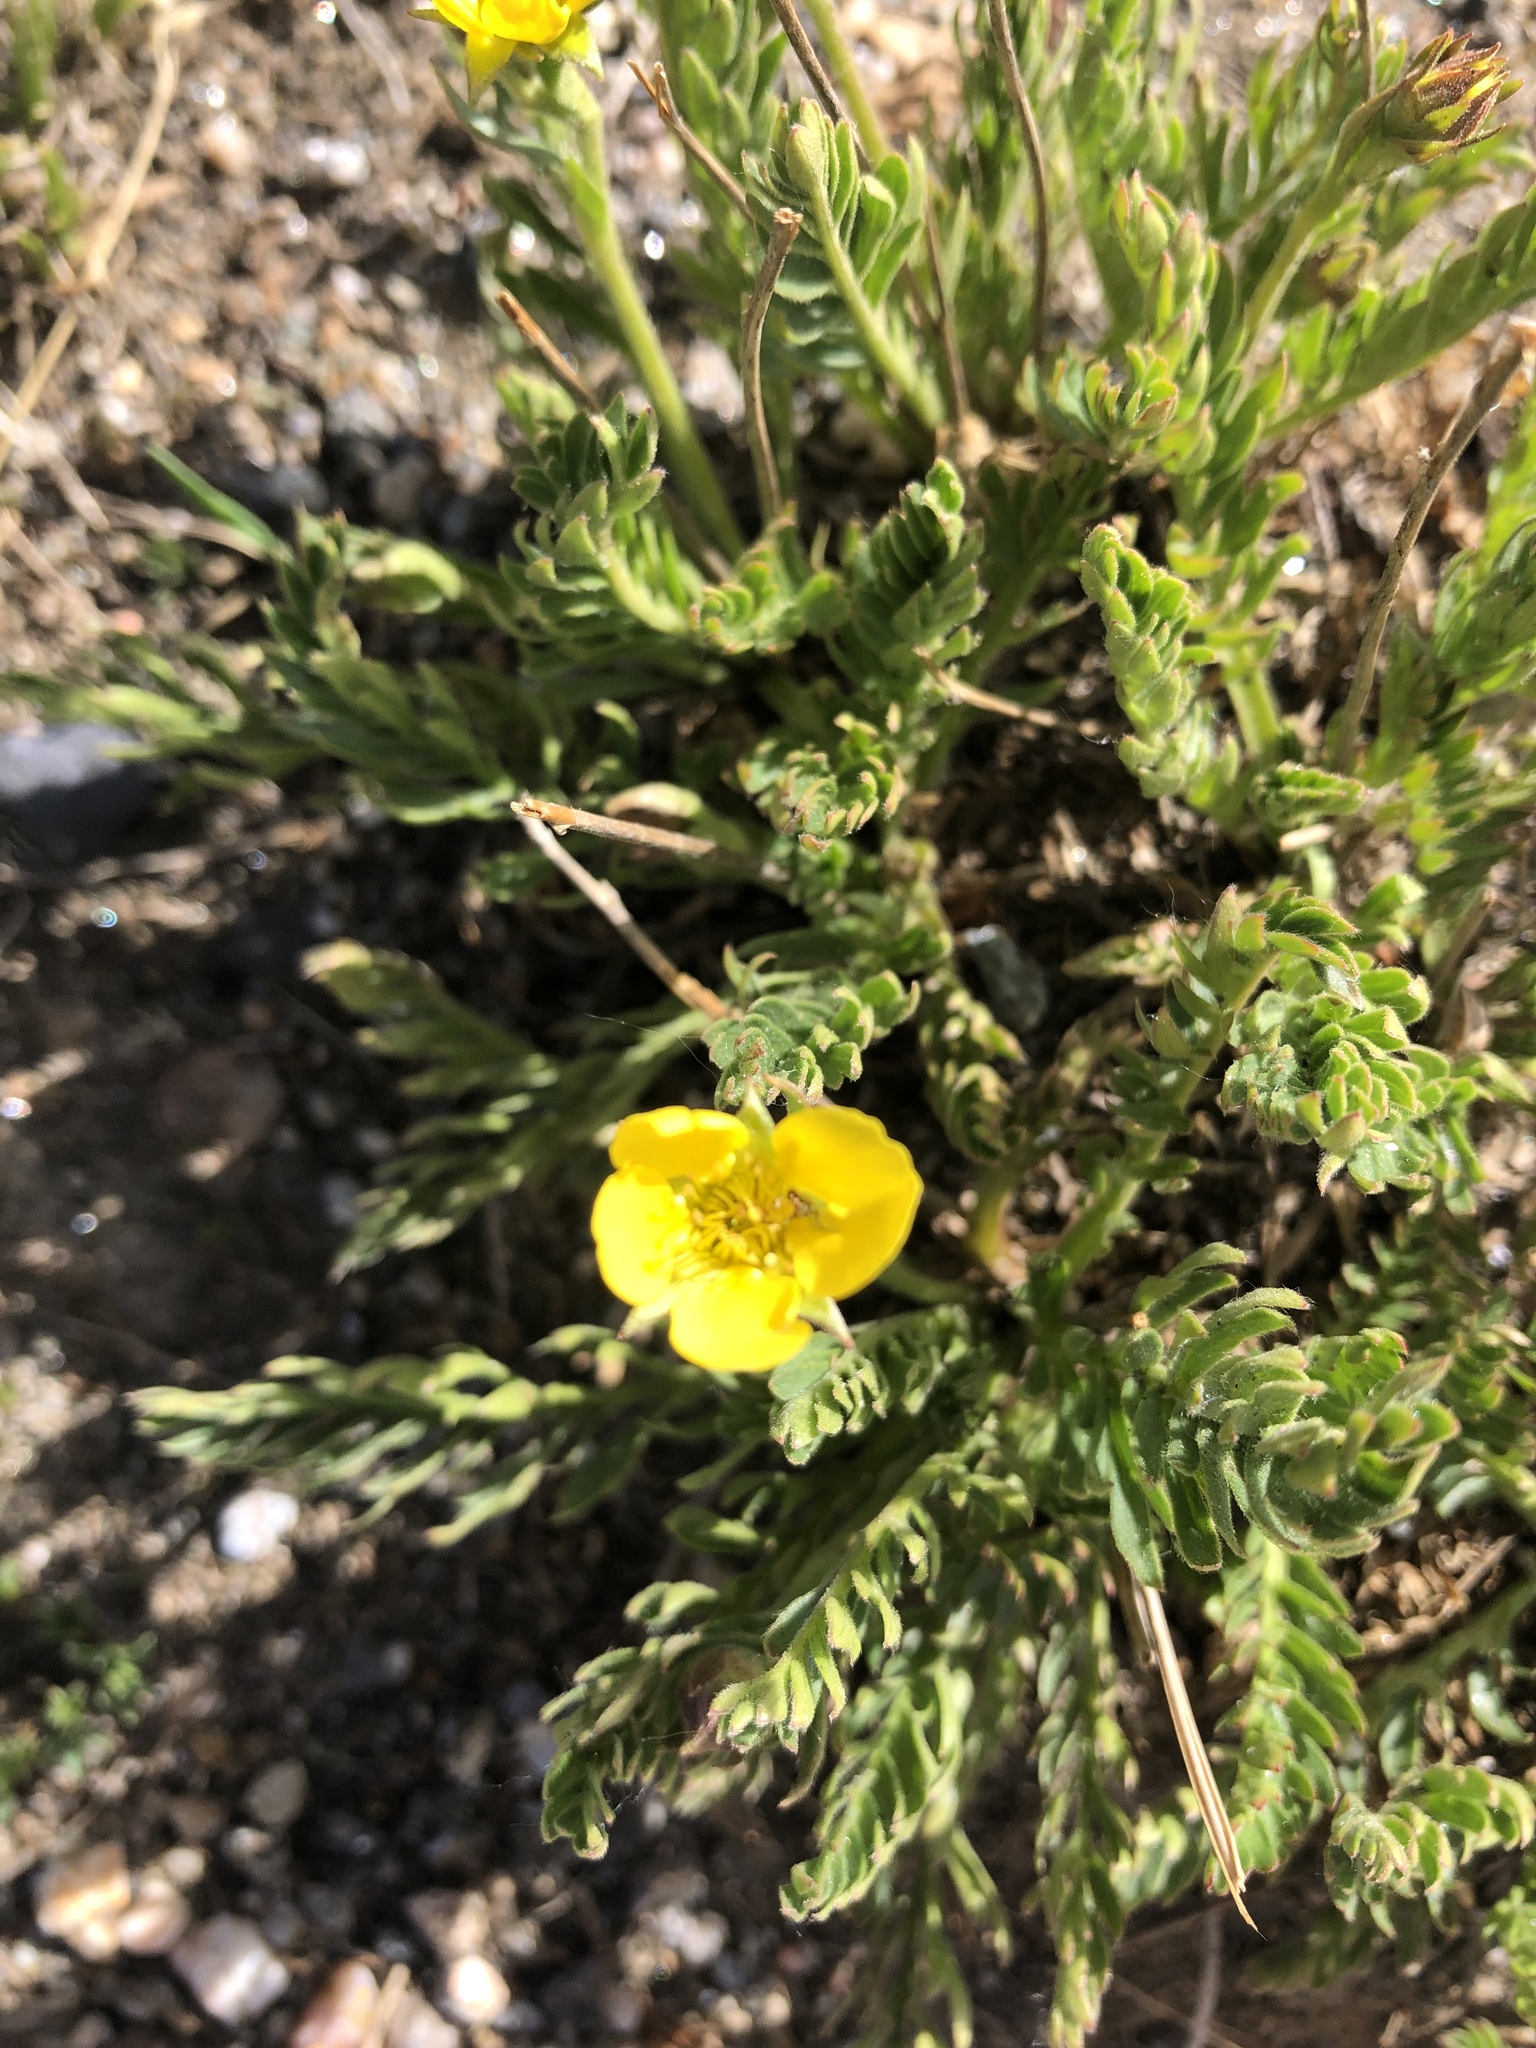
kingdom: Plantae
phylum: Tracheophyta
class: Magnoliopsida
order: Rosales
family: Rosaceae
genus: Geum
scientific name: Geum rossii
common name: Alpine avens
